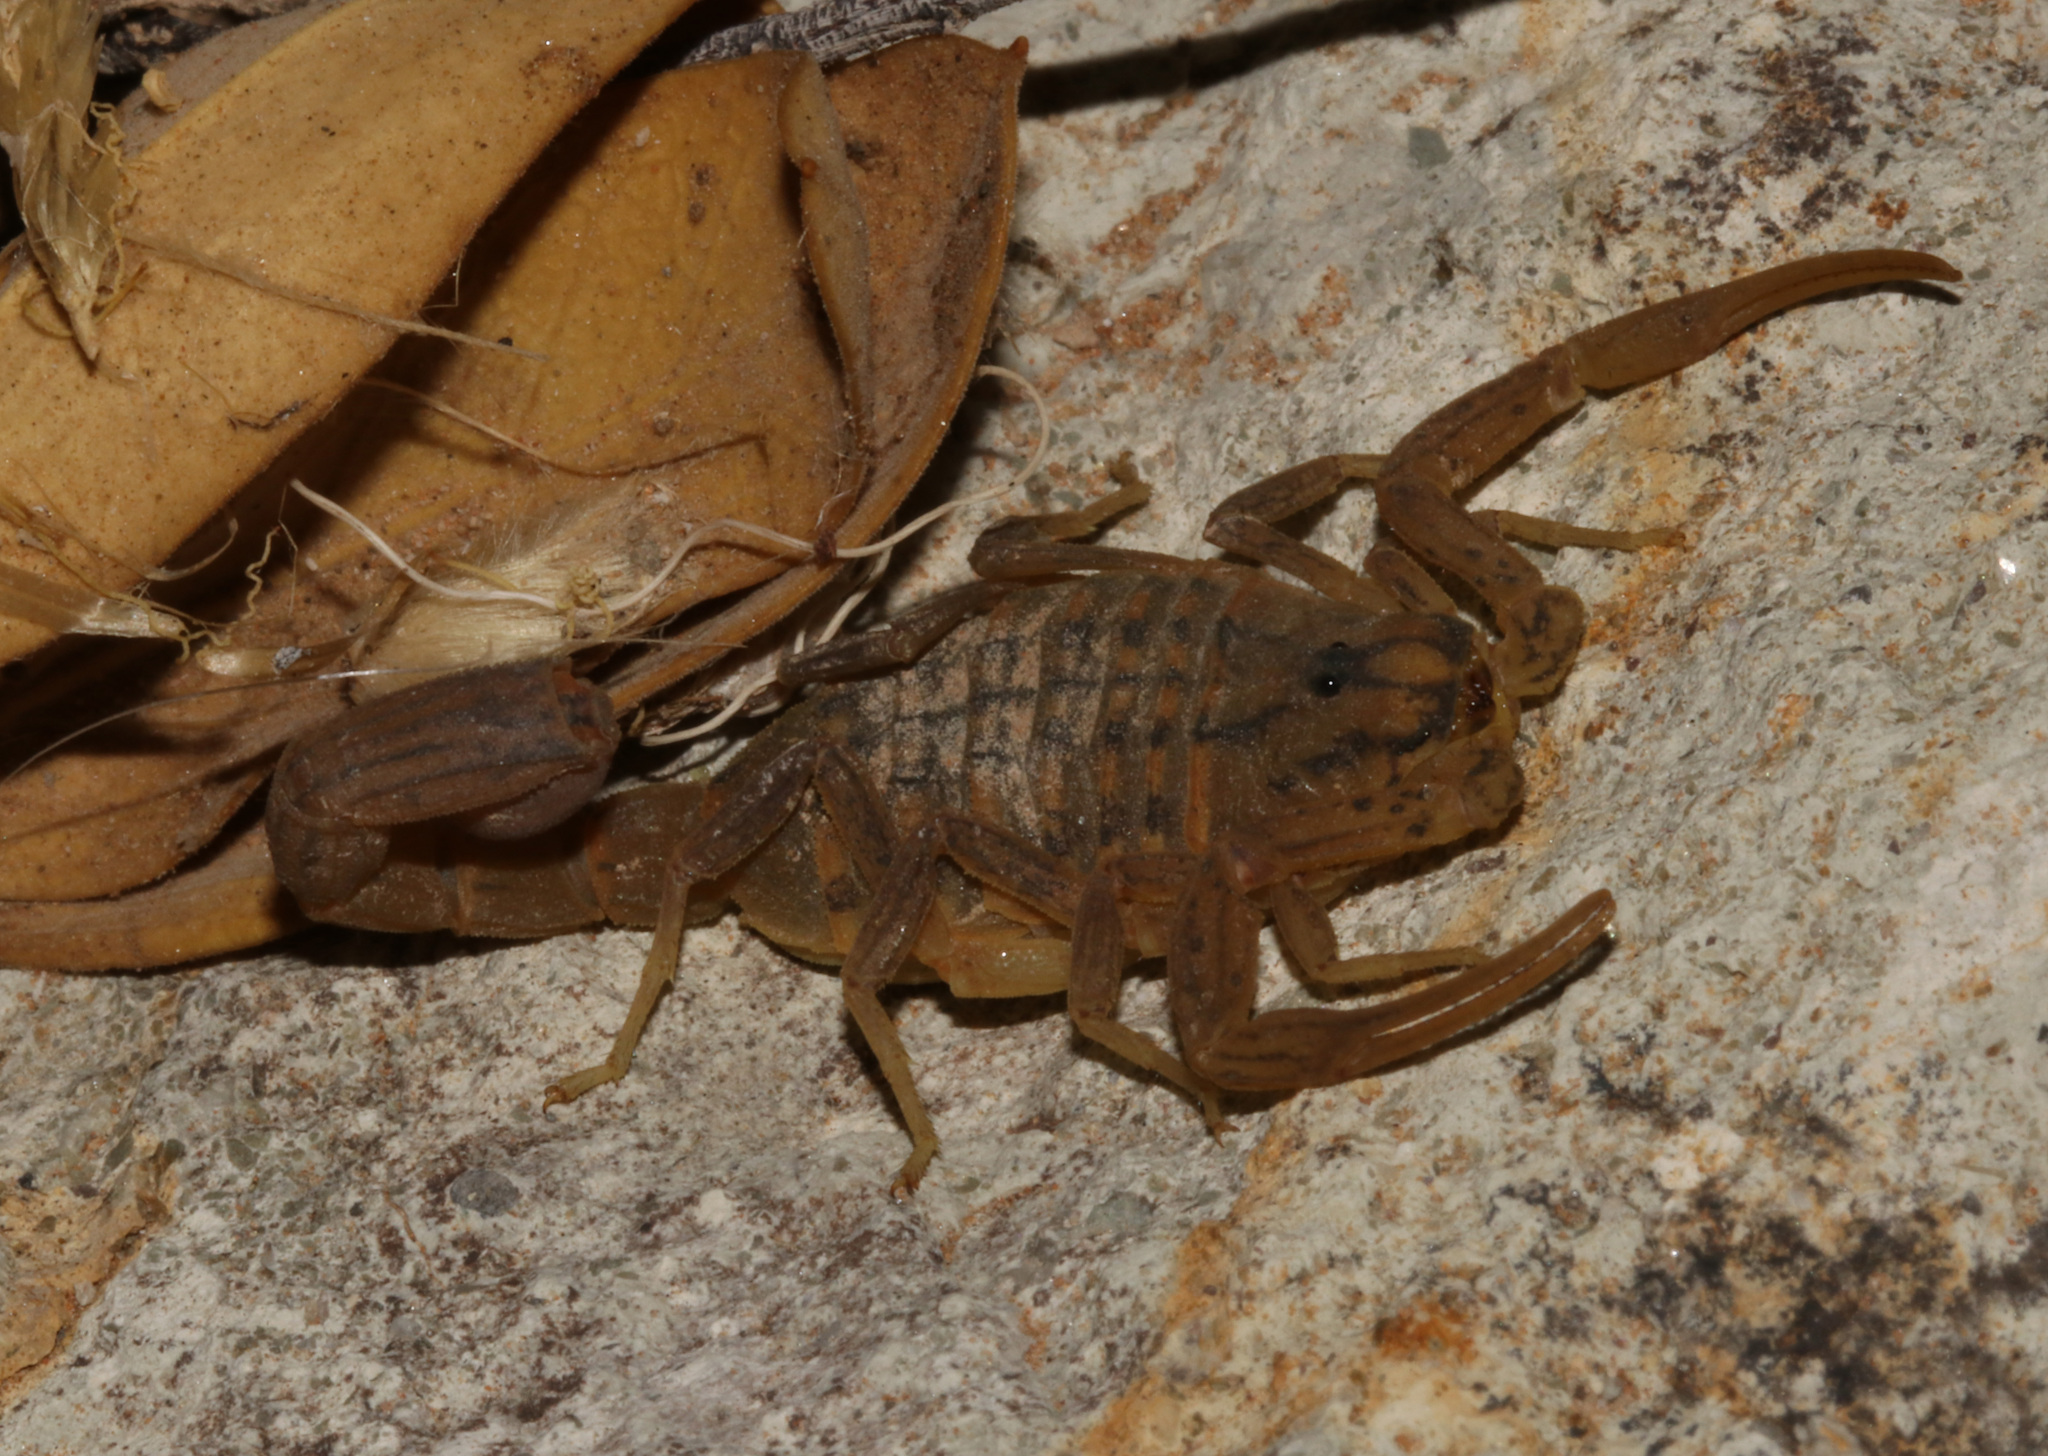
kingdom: Animalia
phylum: Arthropoda
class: Arachnida
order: Scorpiones
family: Buthidae
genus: Hottentotta
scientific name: Hottentotta conspersus
